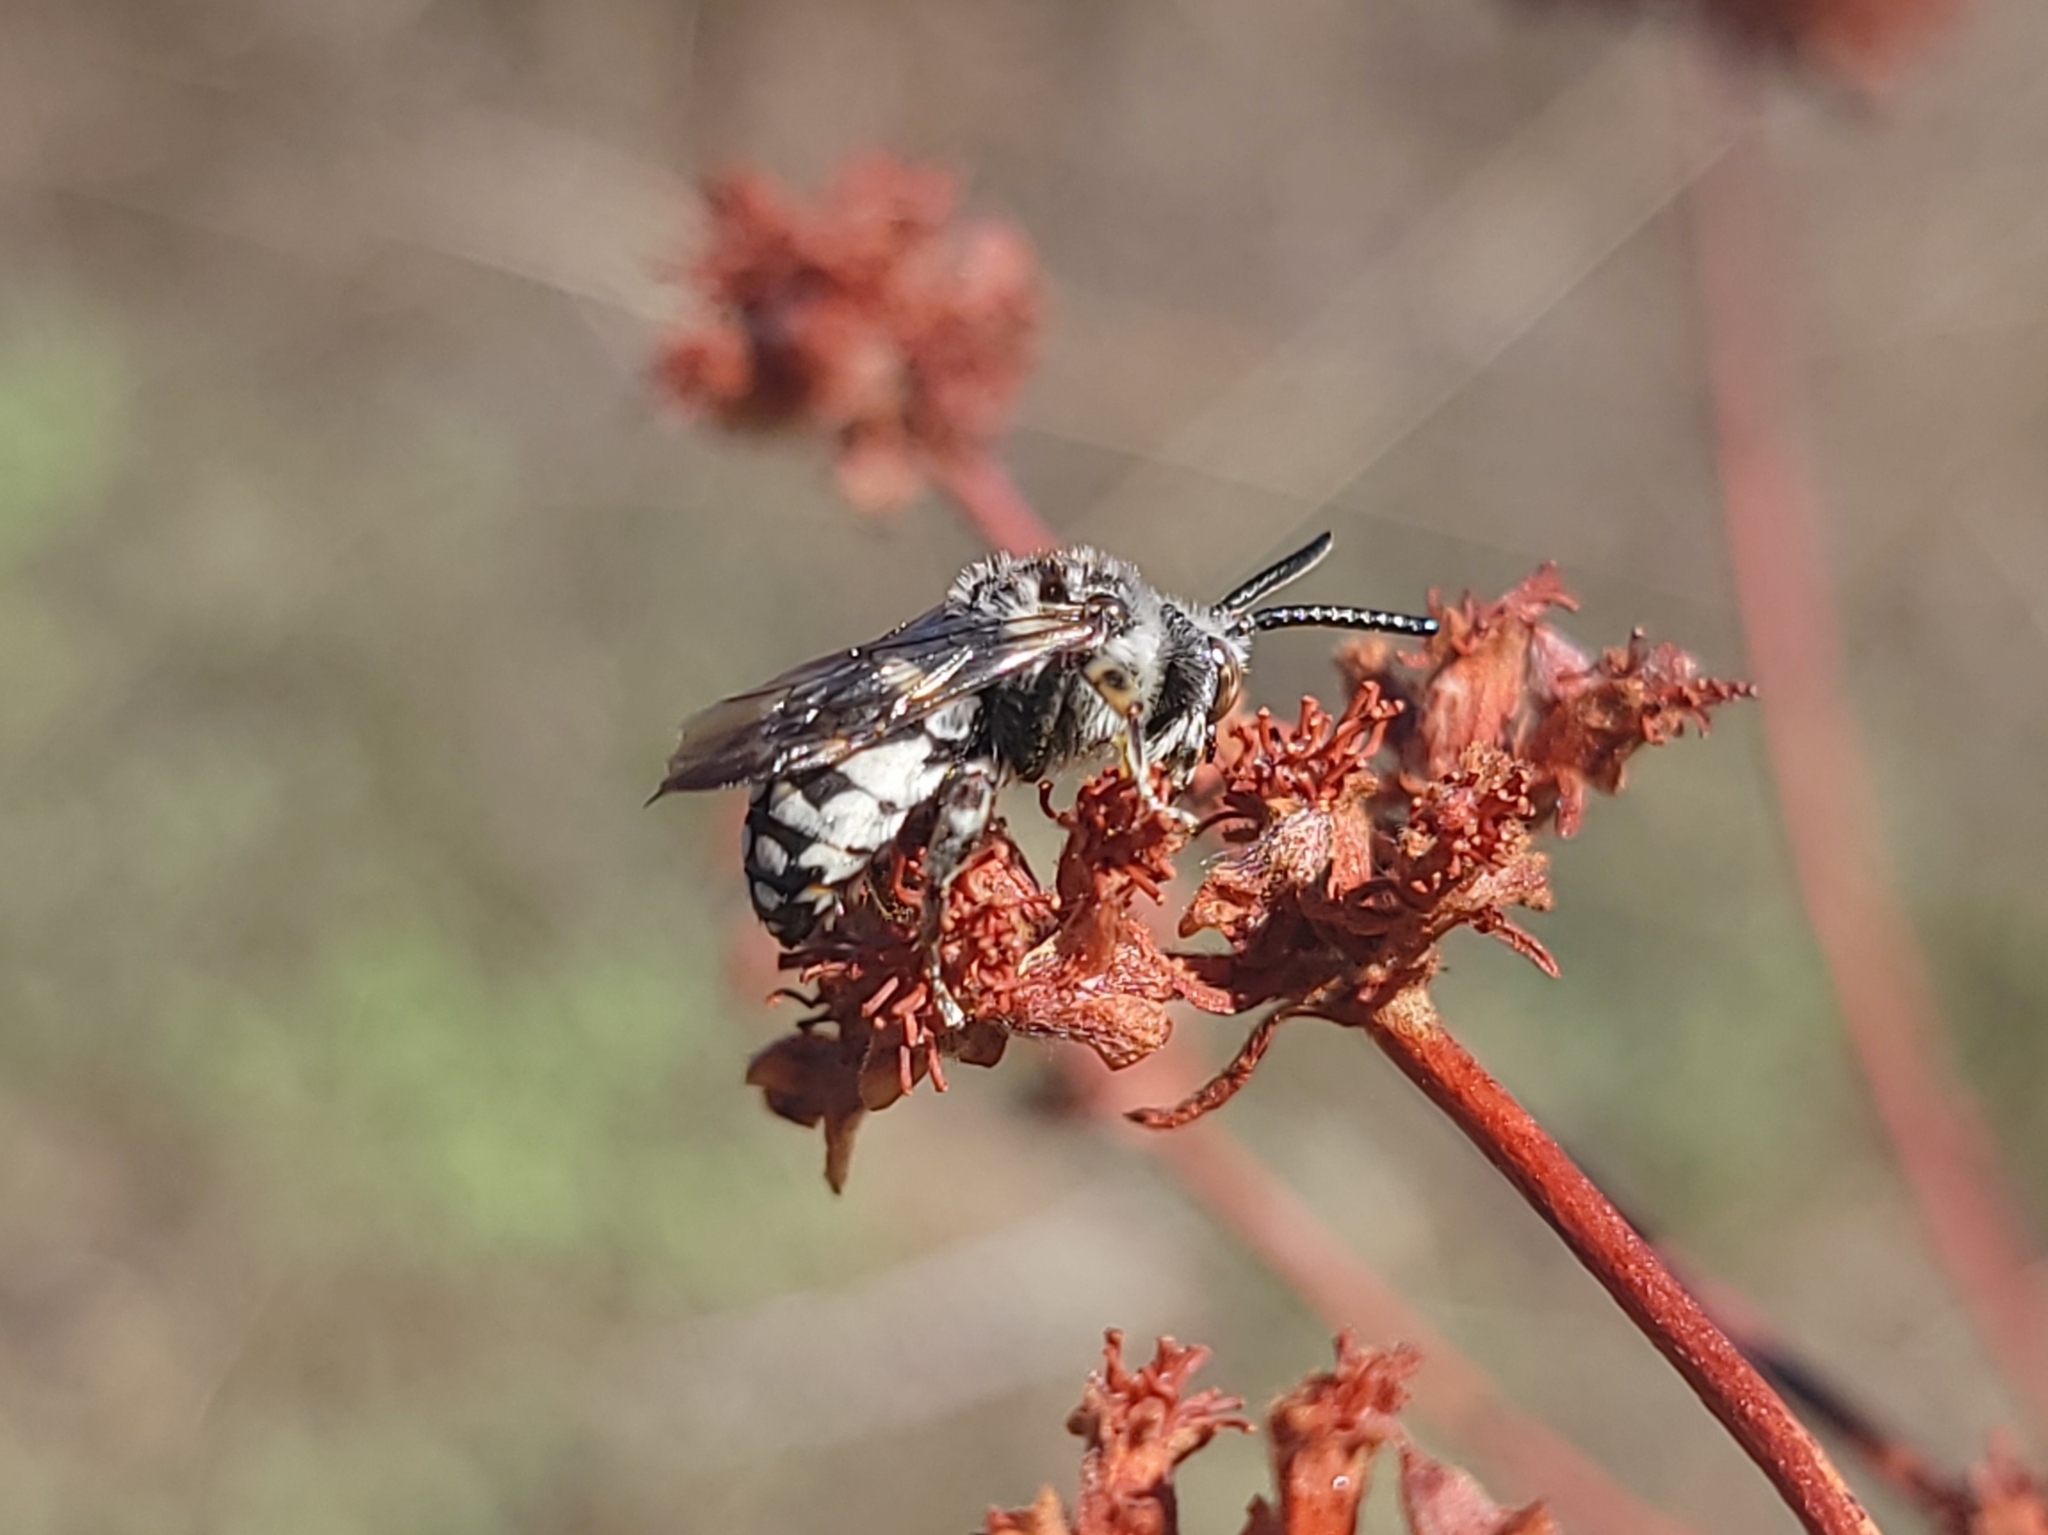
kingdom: Animalia
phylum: Arthropoda
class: Insecta
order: Hymenoptera
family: Apidae
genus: Brachymelecta
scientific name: Brachymelecta californica
